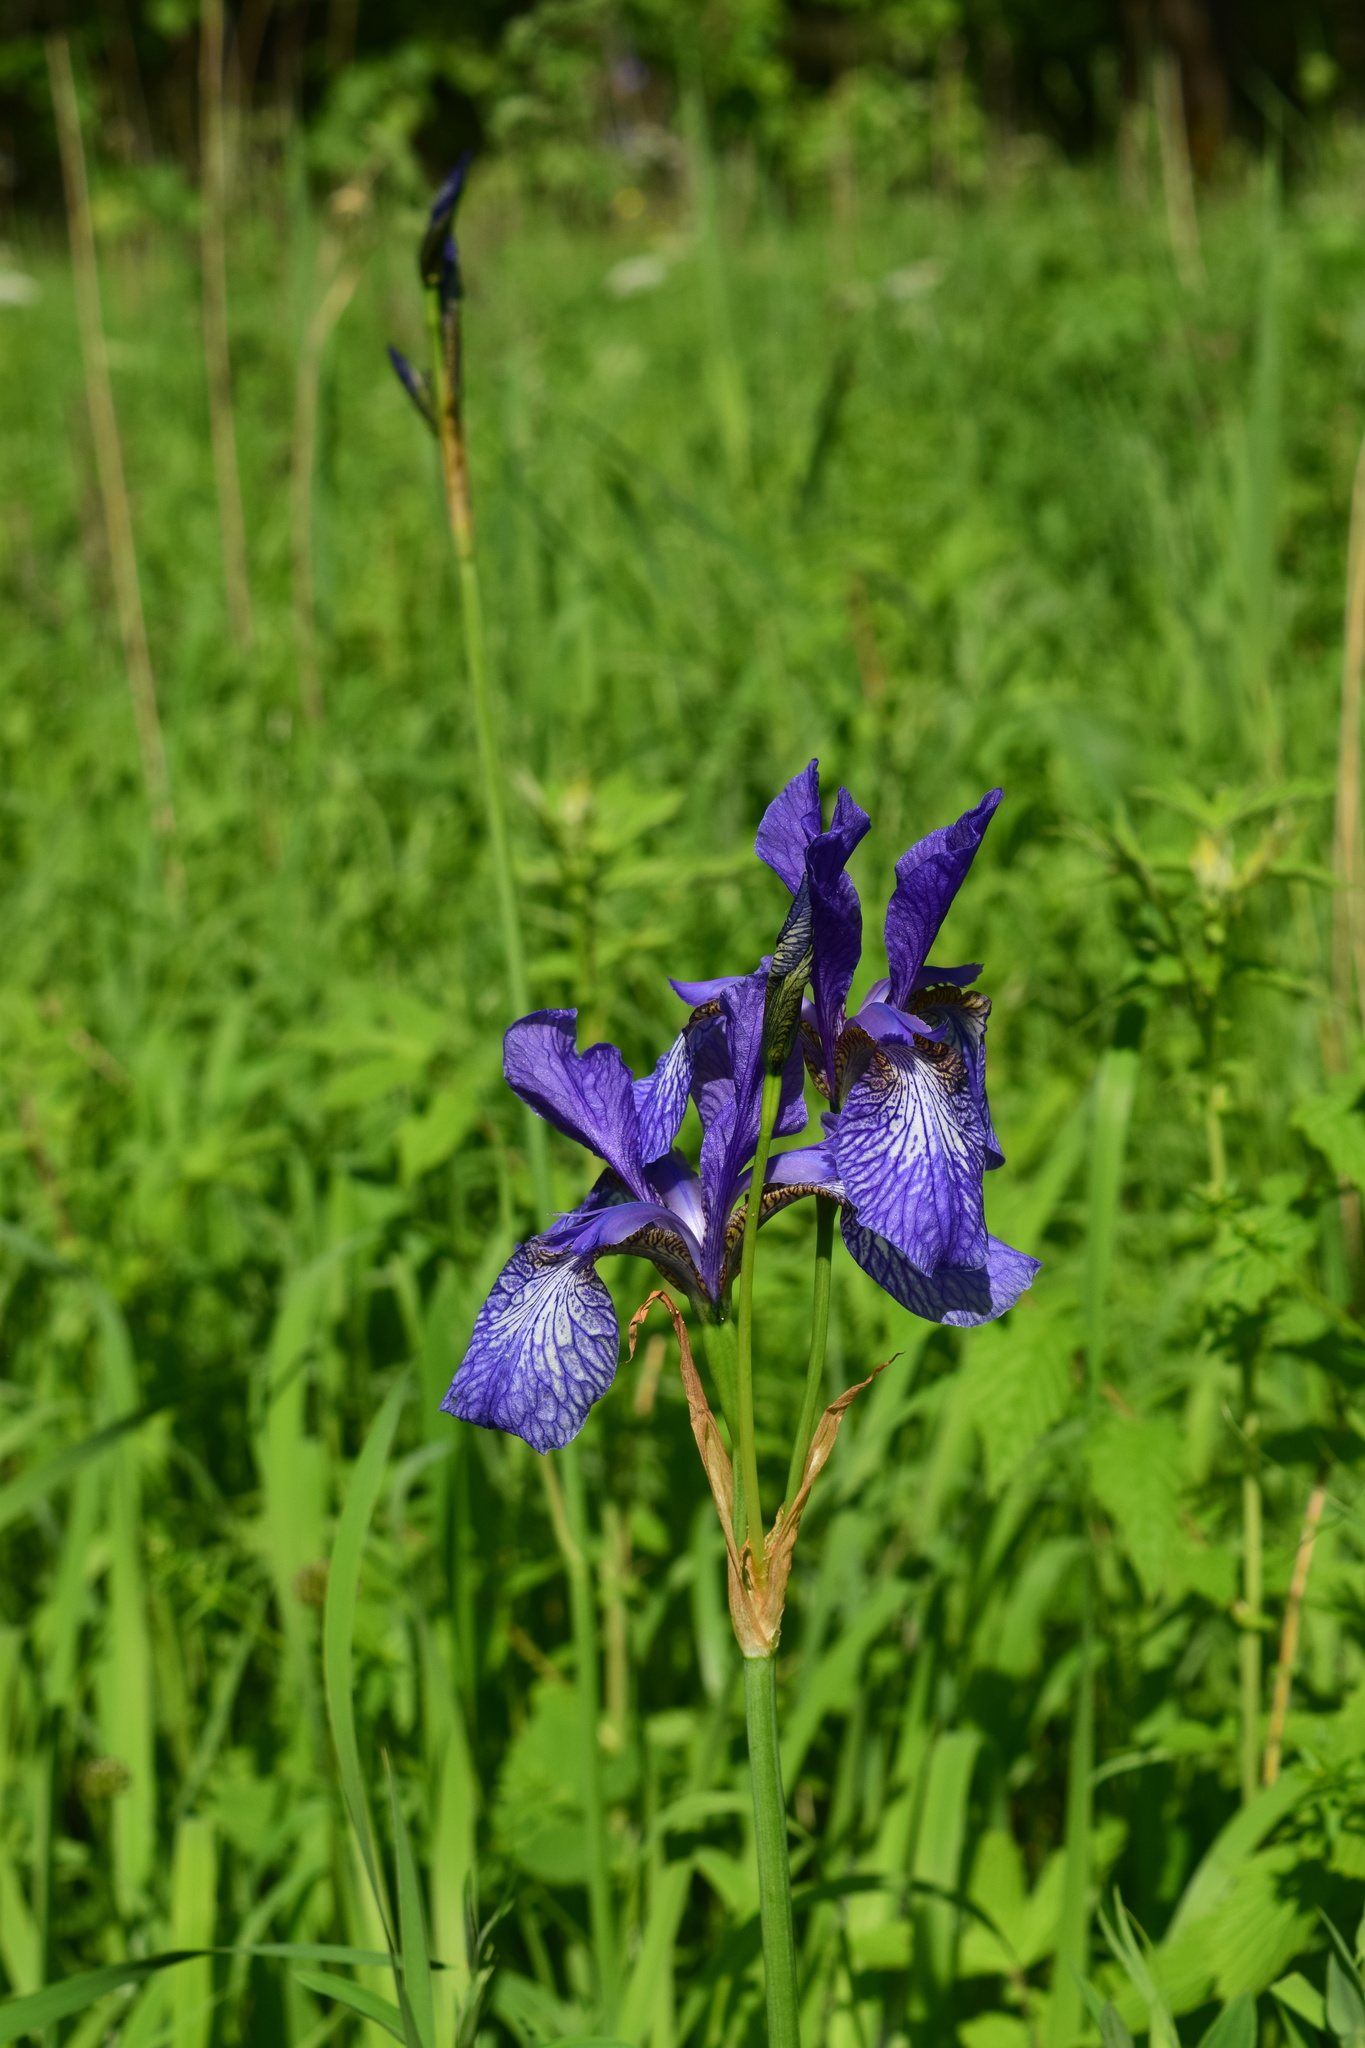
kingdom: Plantae
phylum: Tracheophyta
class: Liliopsida
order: Asparagales
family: Iridaceae
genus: Iris
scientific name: Iris sibirica
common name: Siberian iris
